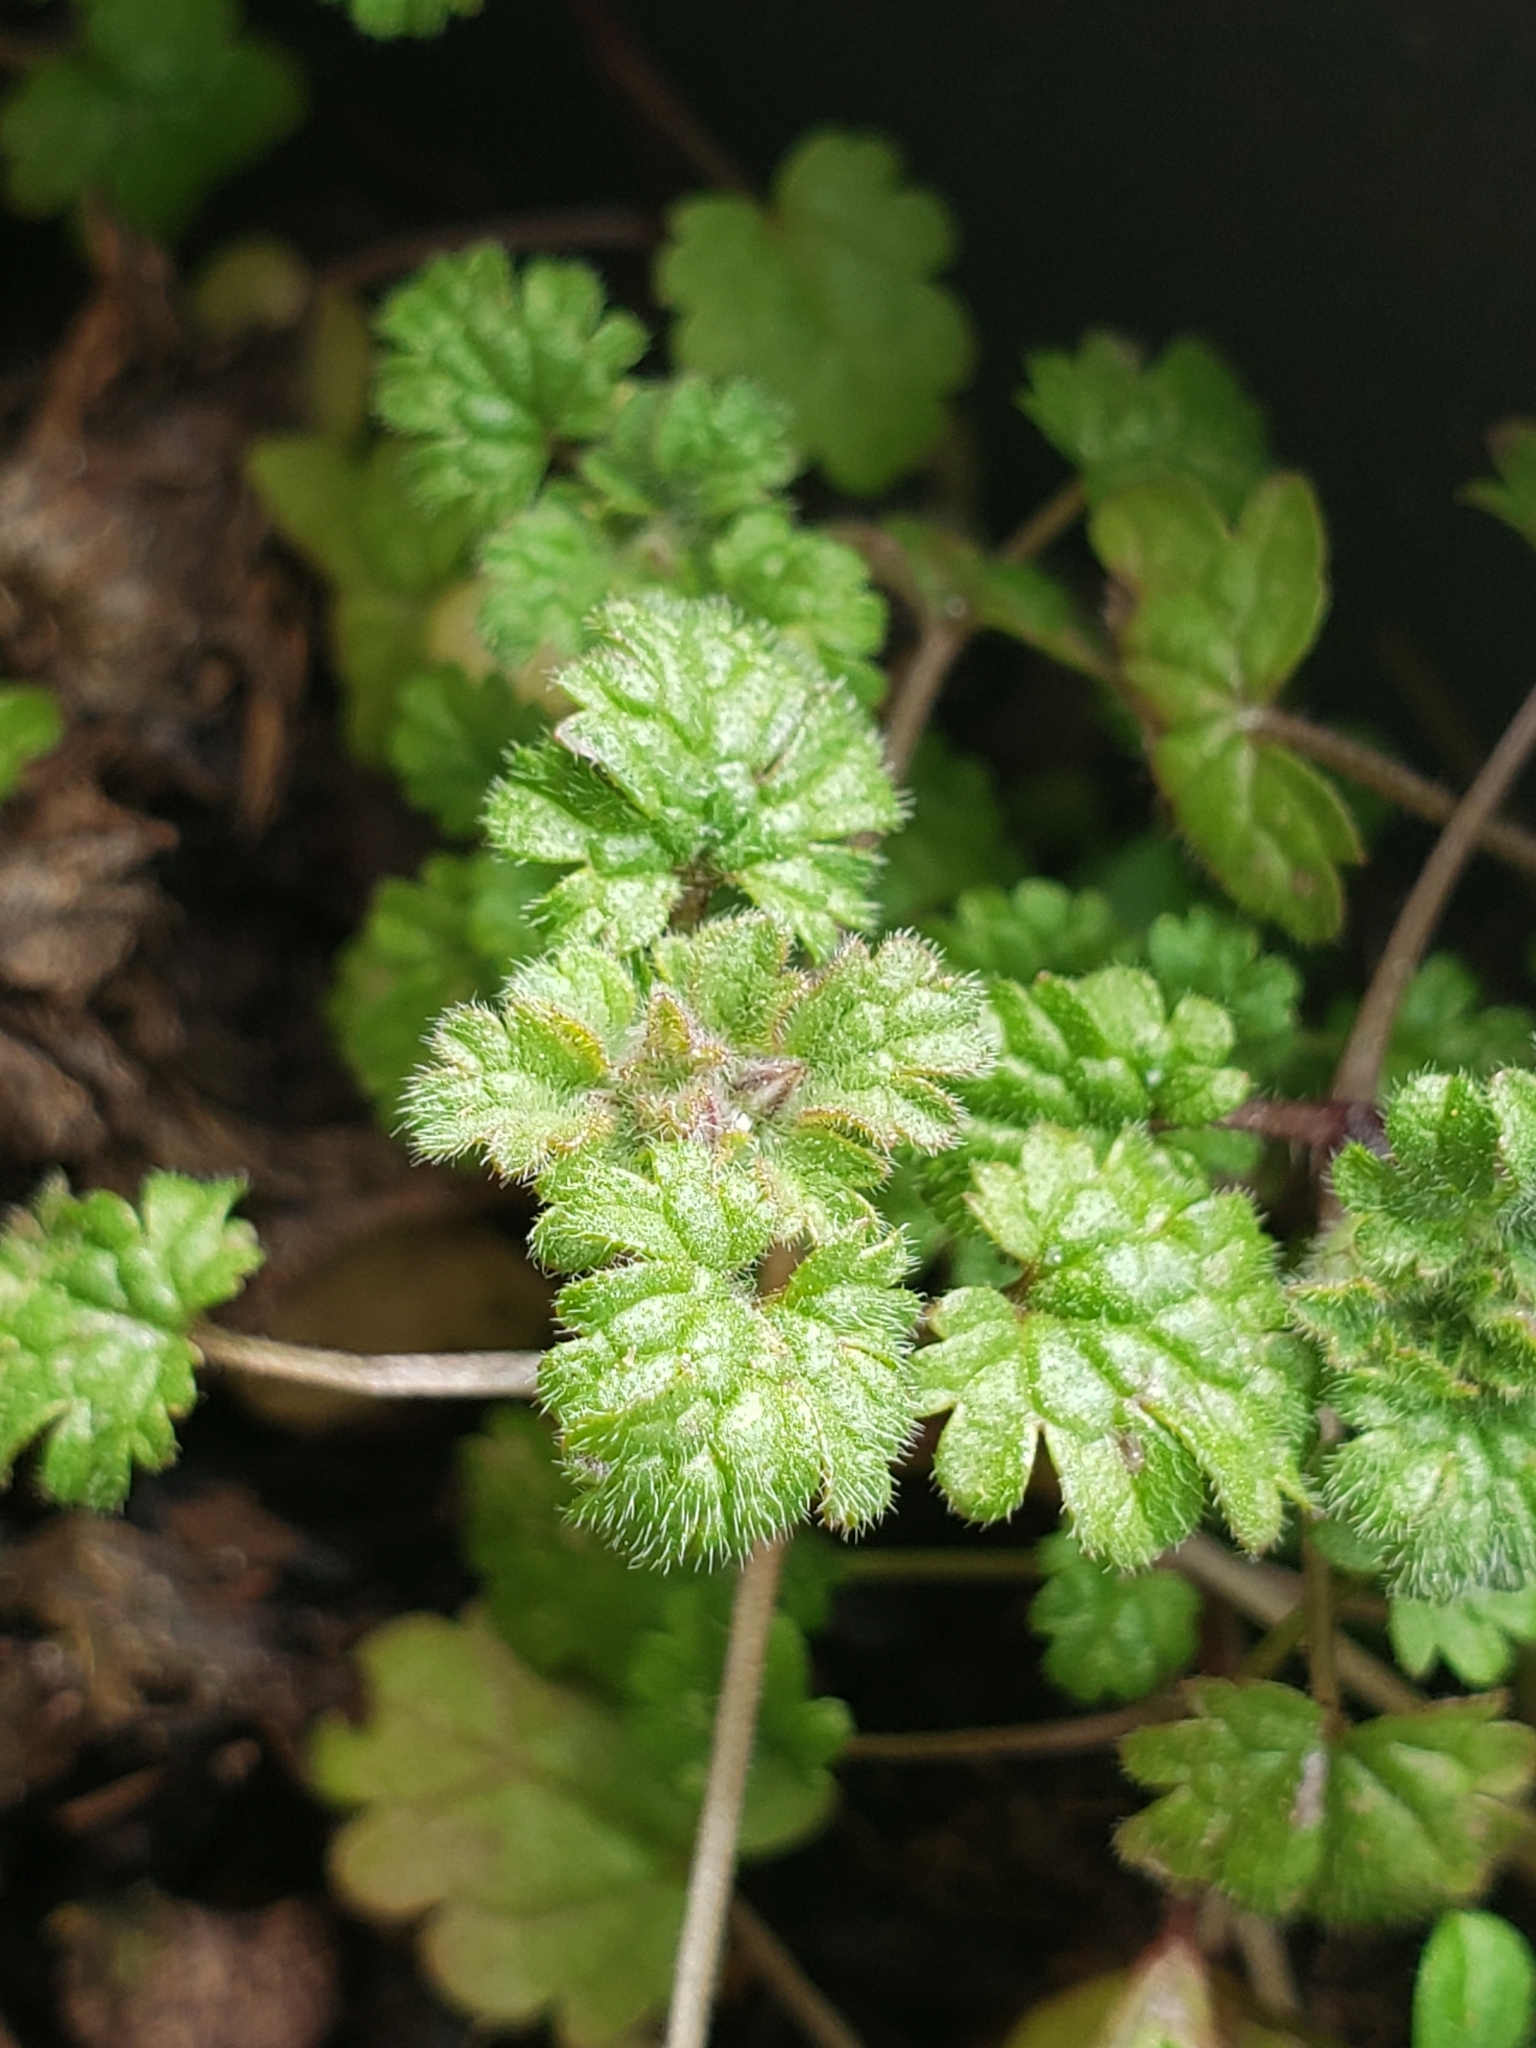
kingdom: Plantae
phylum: Tracheophyta
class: Magnoliopsida
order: Lamiales
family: Lamiaceae
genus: Lamium
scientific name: Lamium amplexicaule
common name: Henbit dead-nettle
